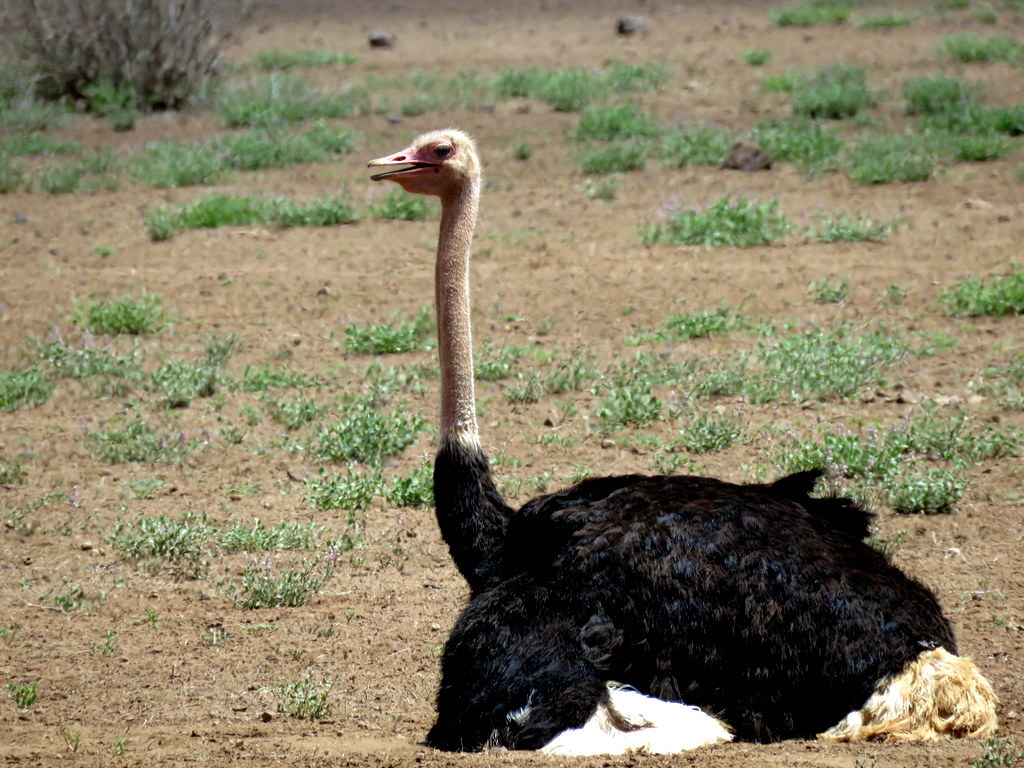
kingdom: Animalia
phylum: Chordata
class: Aves
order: Struthioniformes
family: Struthionidae
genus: Struthio
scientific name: Struthio camelus
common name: Common ostrich
